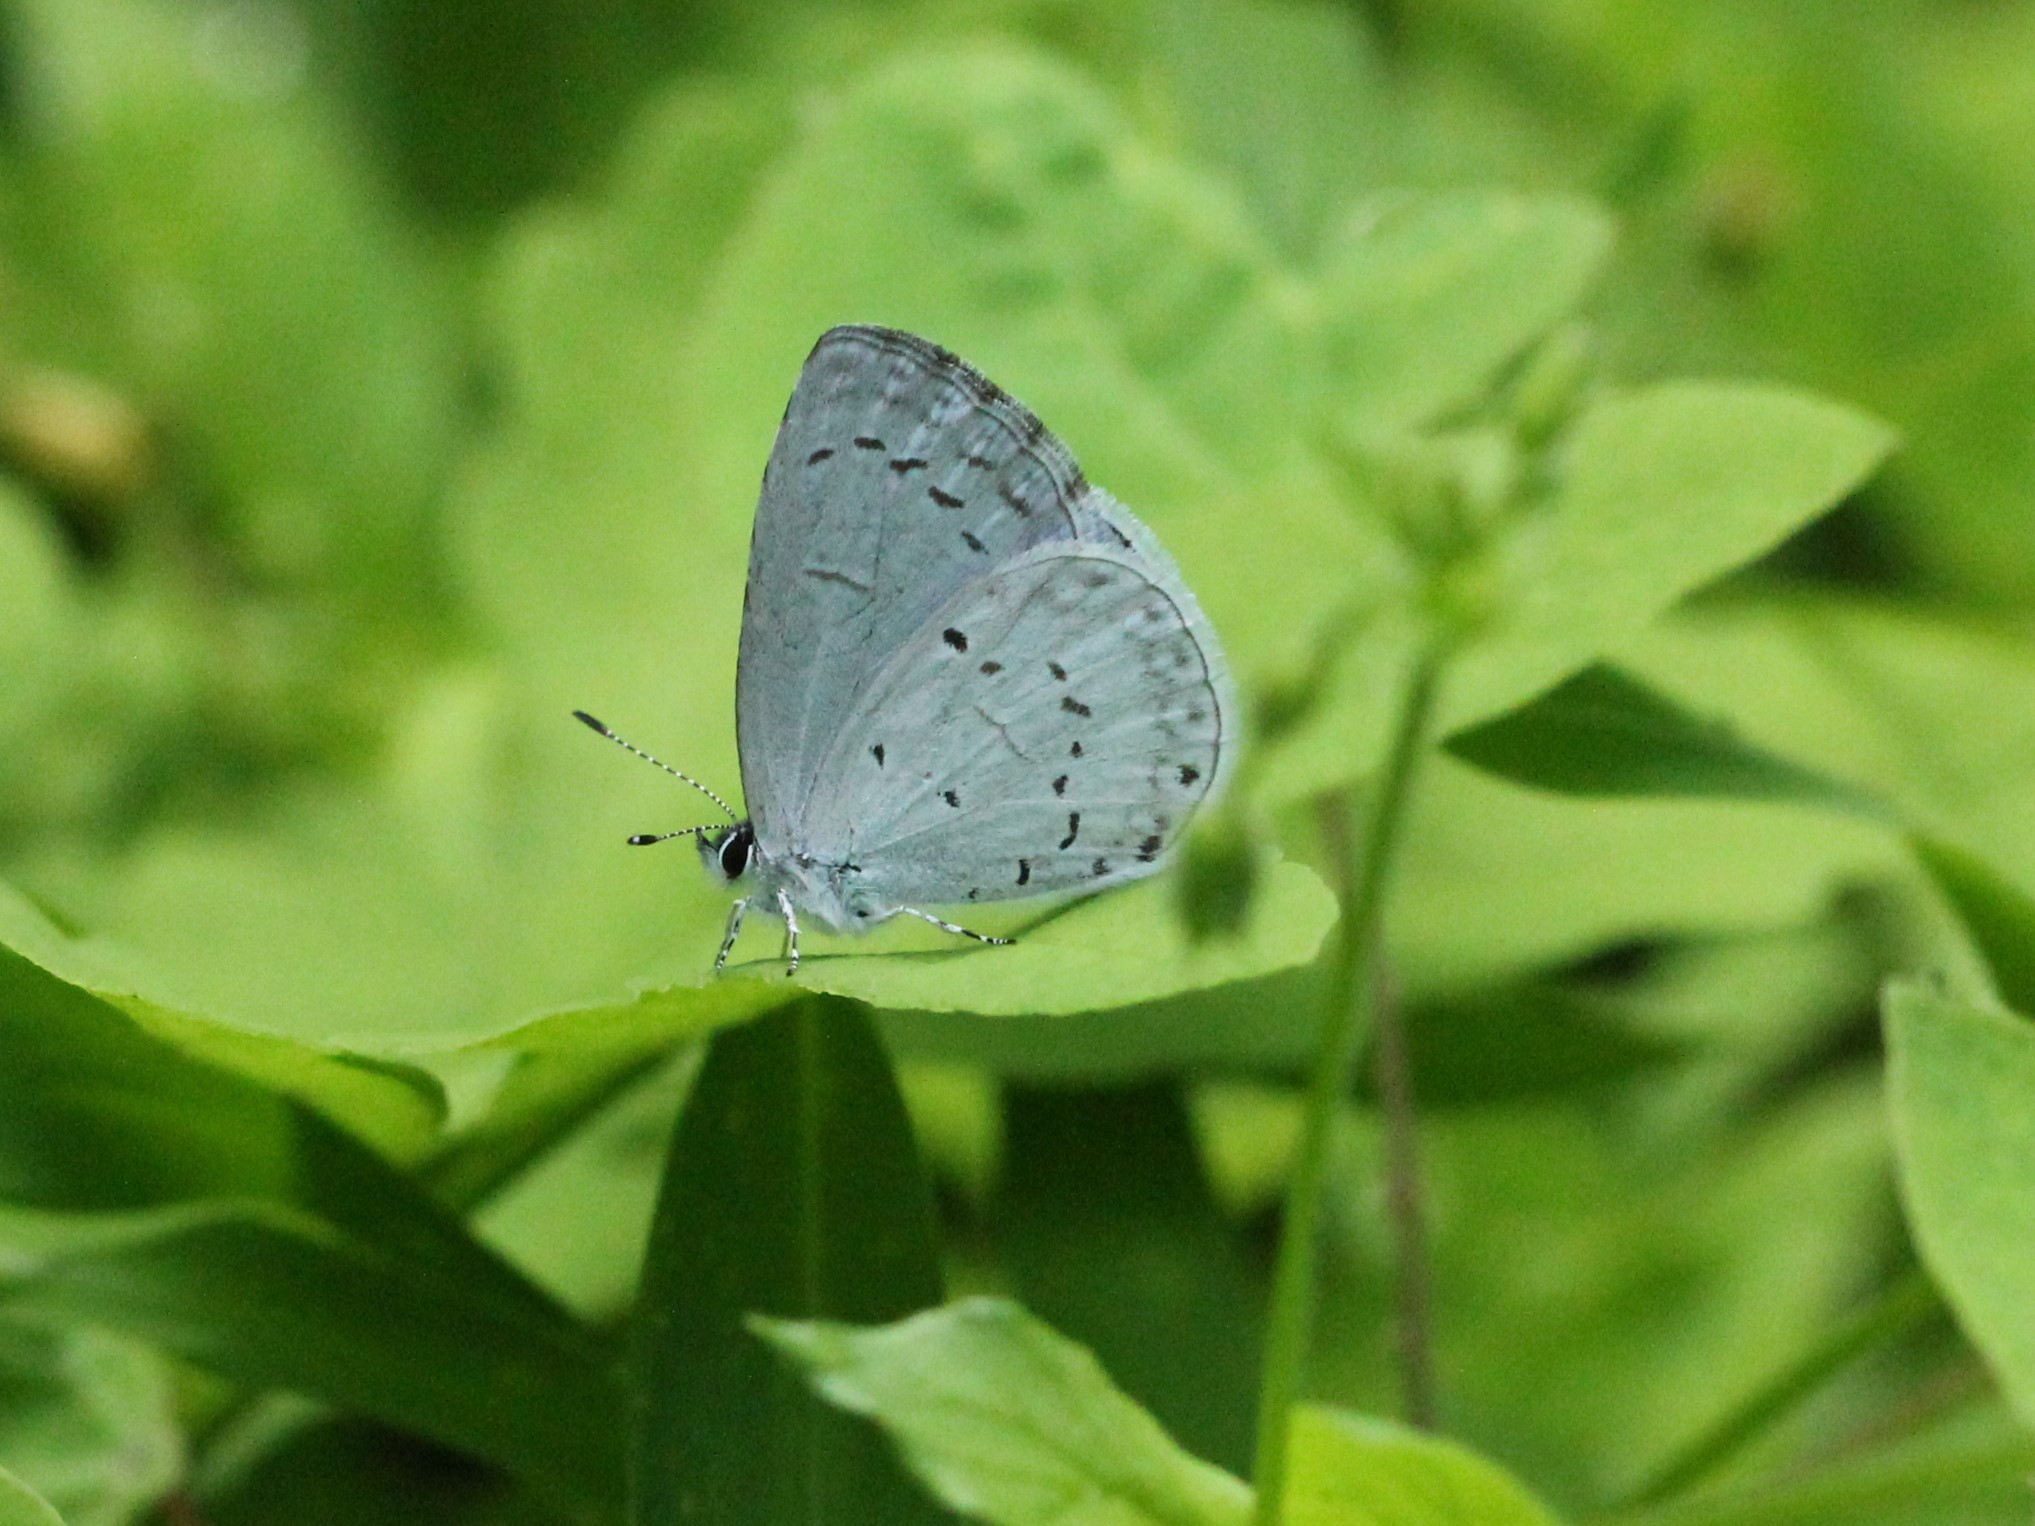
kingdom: Animalia
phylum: Arthropoda
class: Insecta
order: Lepidoptera
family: Lycaenidae
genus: Cyaniris
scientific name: Cyaniris neglecta
